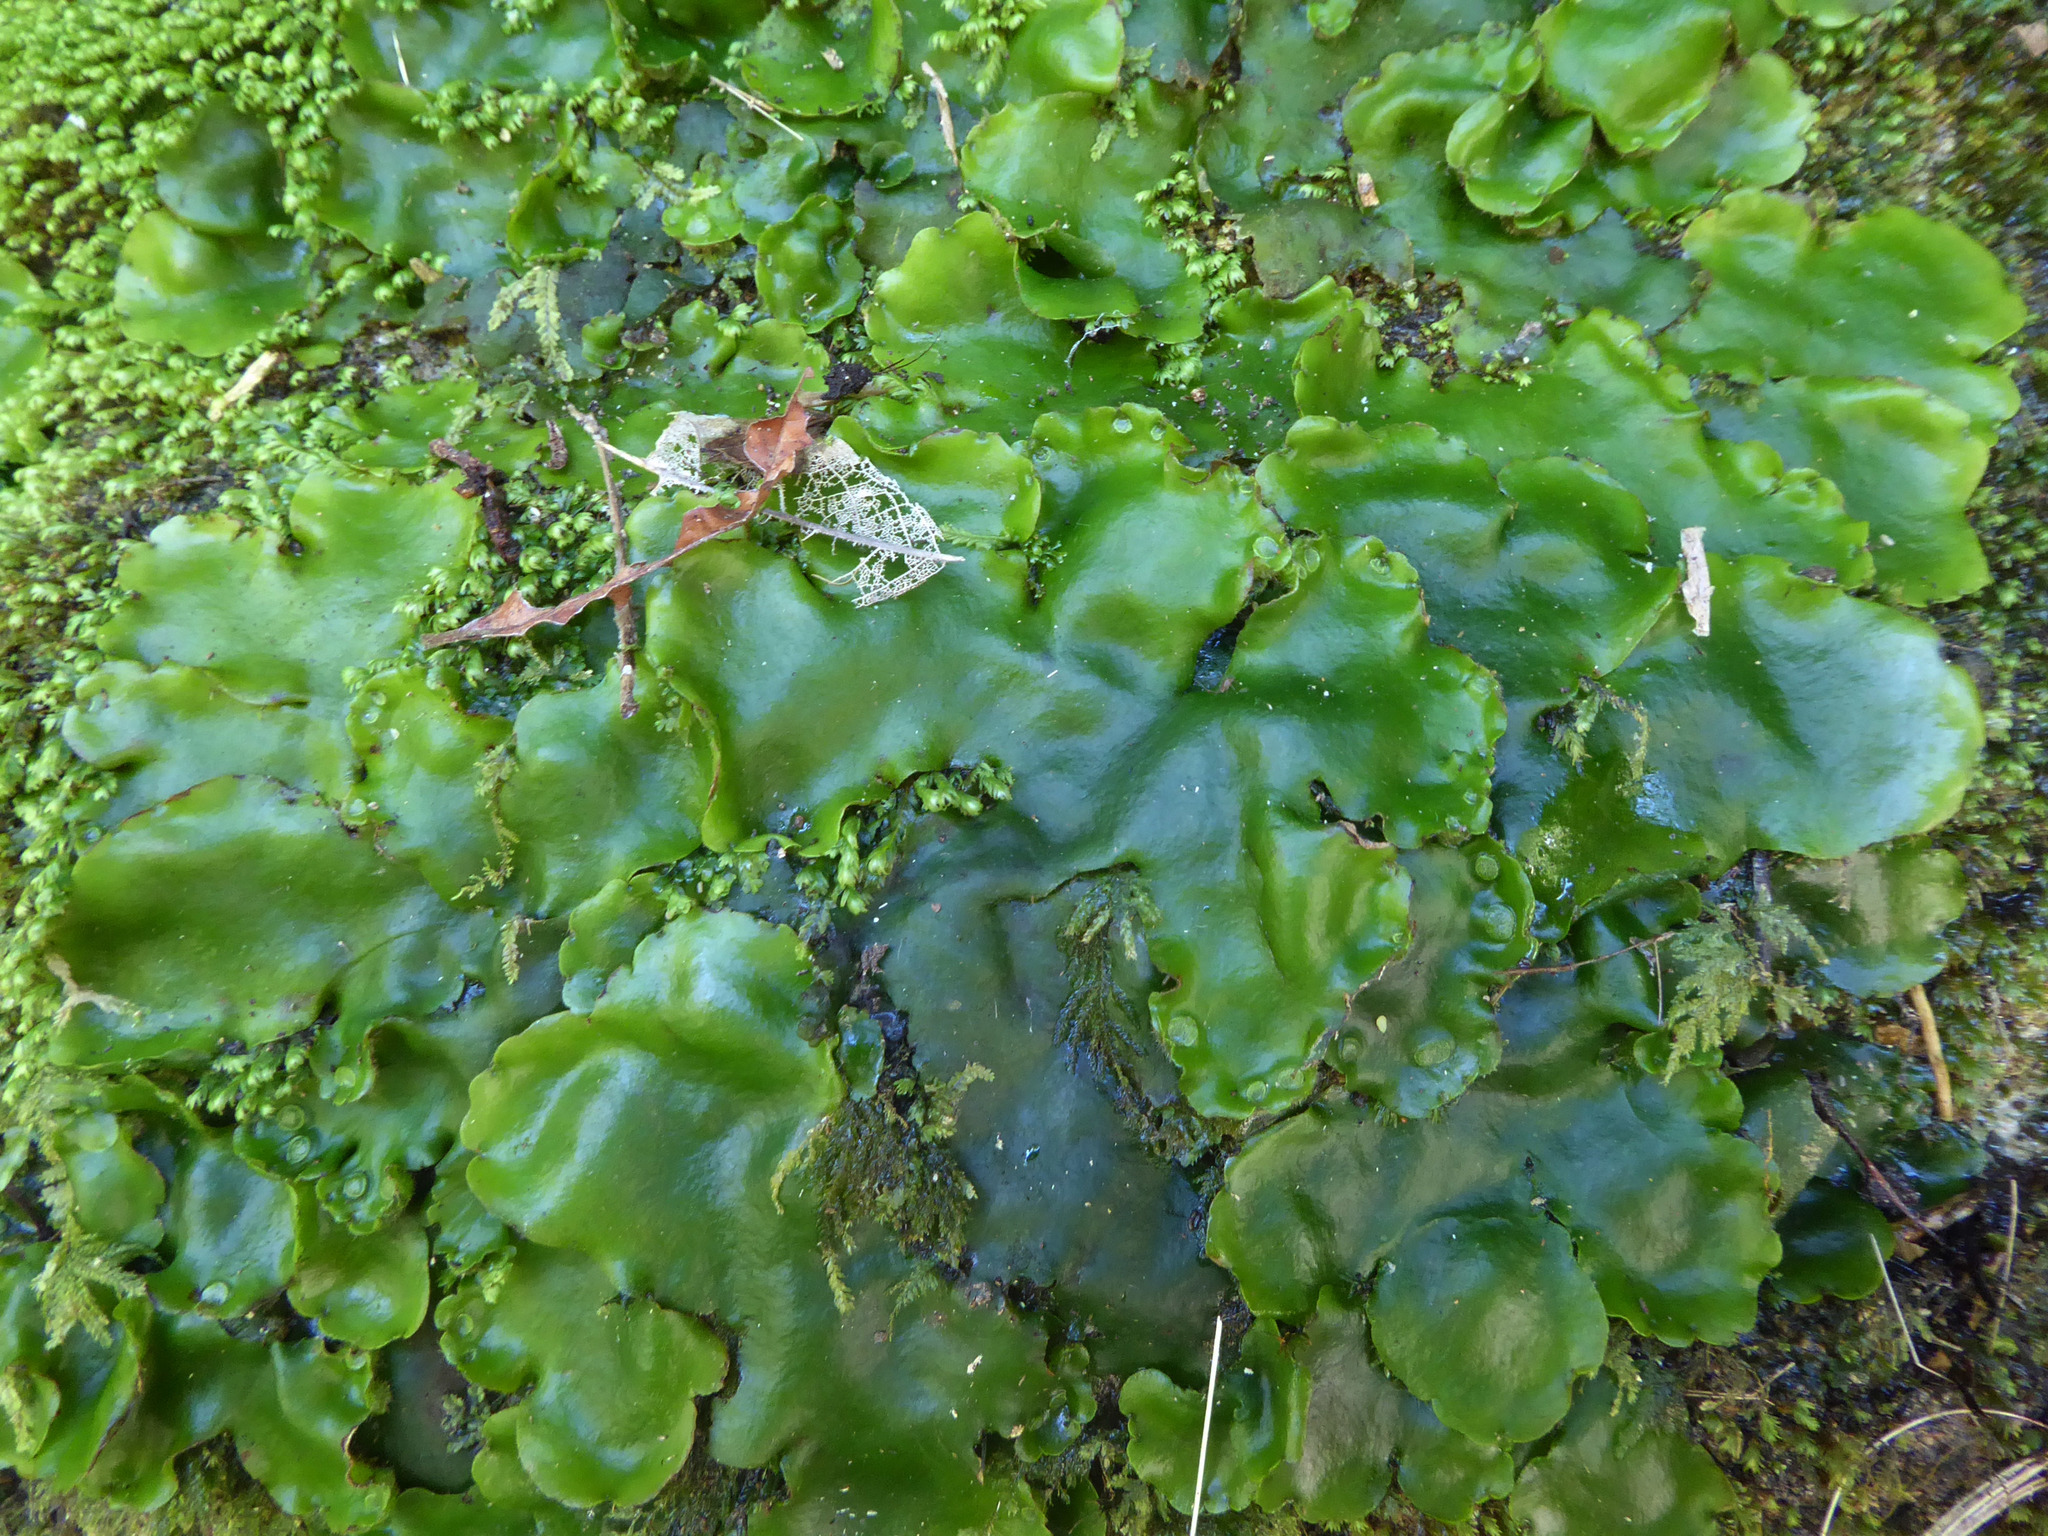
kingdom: Plantae
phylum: Marchantiophyta
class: Marchantiopsida
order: Marchantiales
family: Monocleaceae
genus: Monoclea
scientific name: Monoclea forsteri
